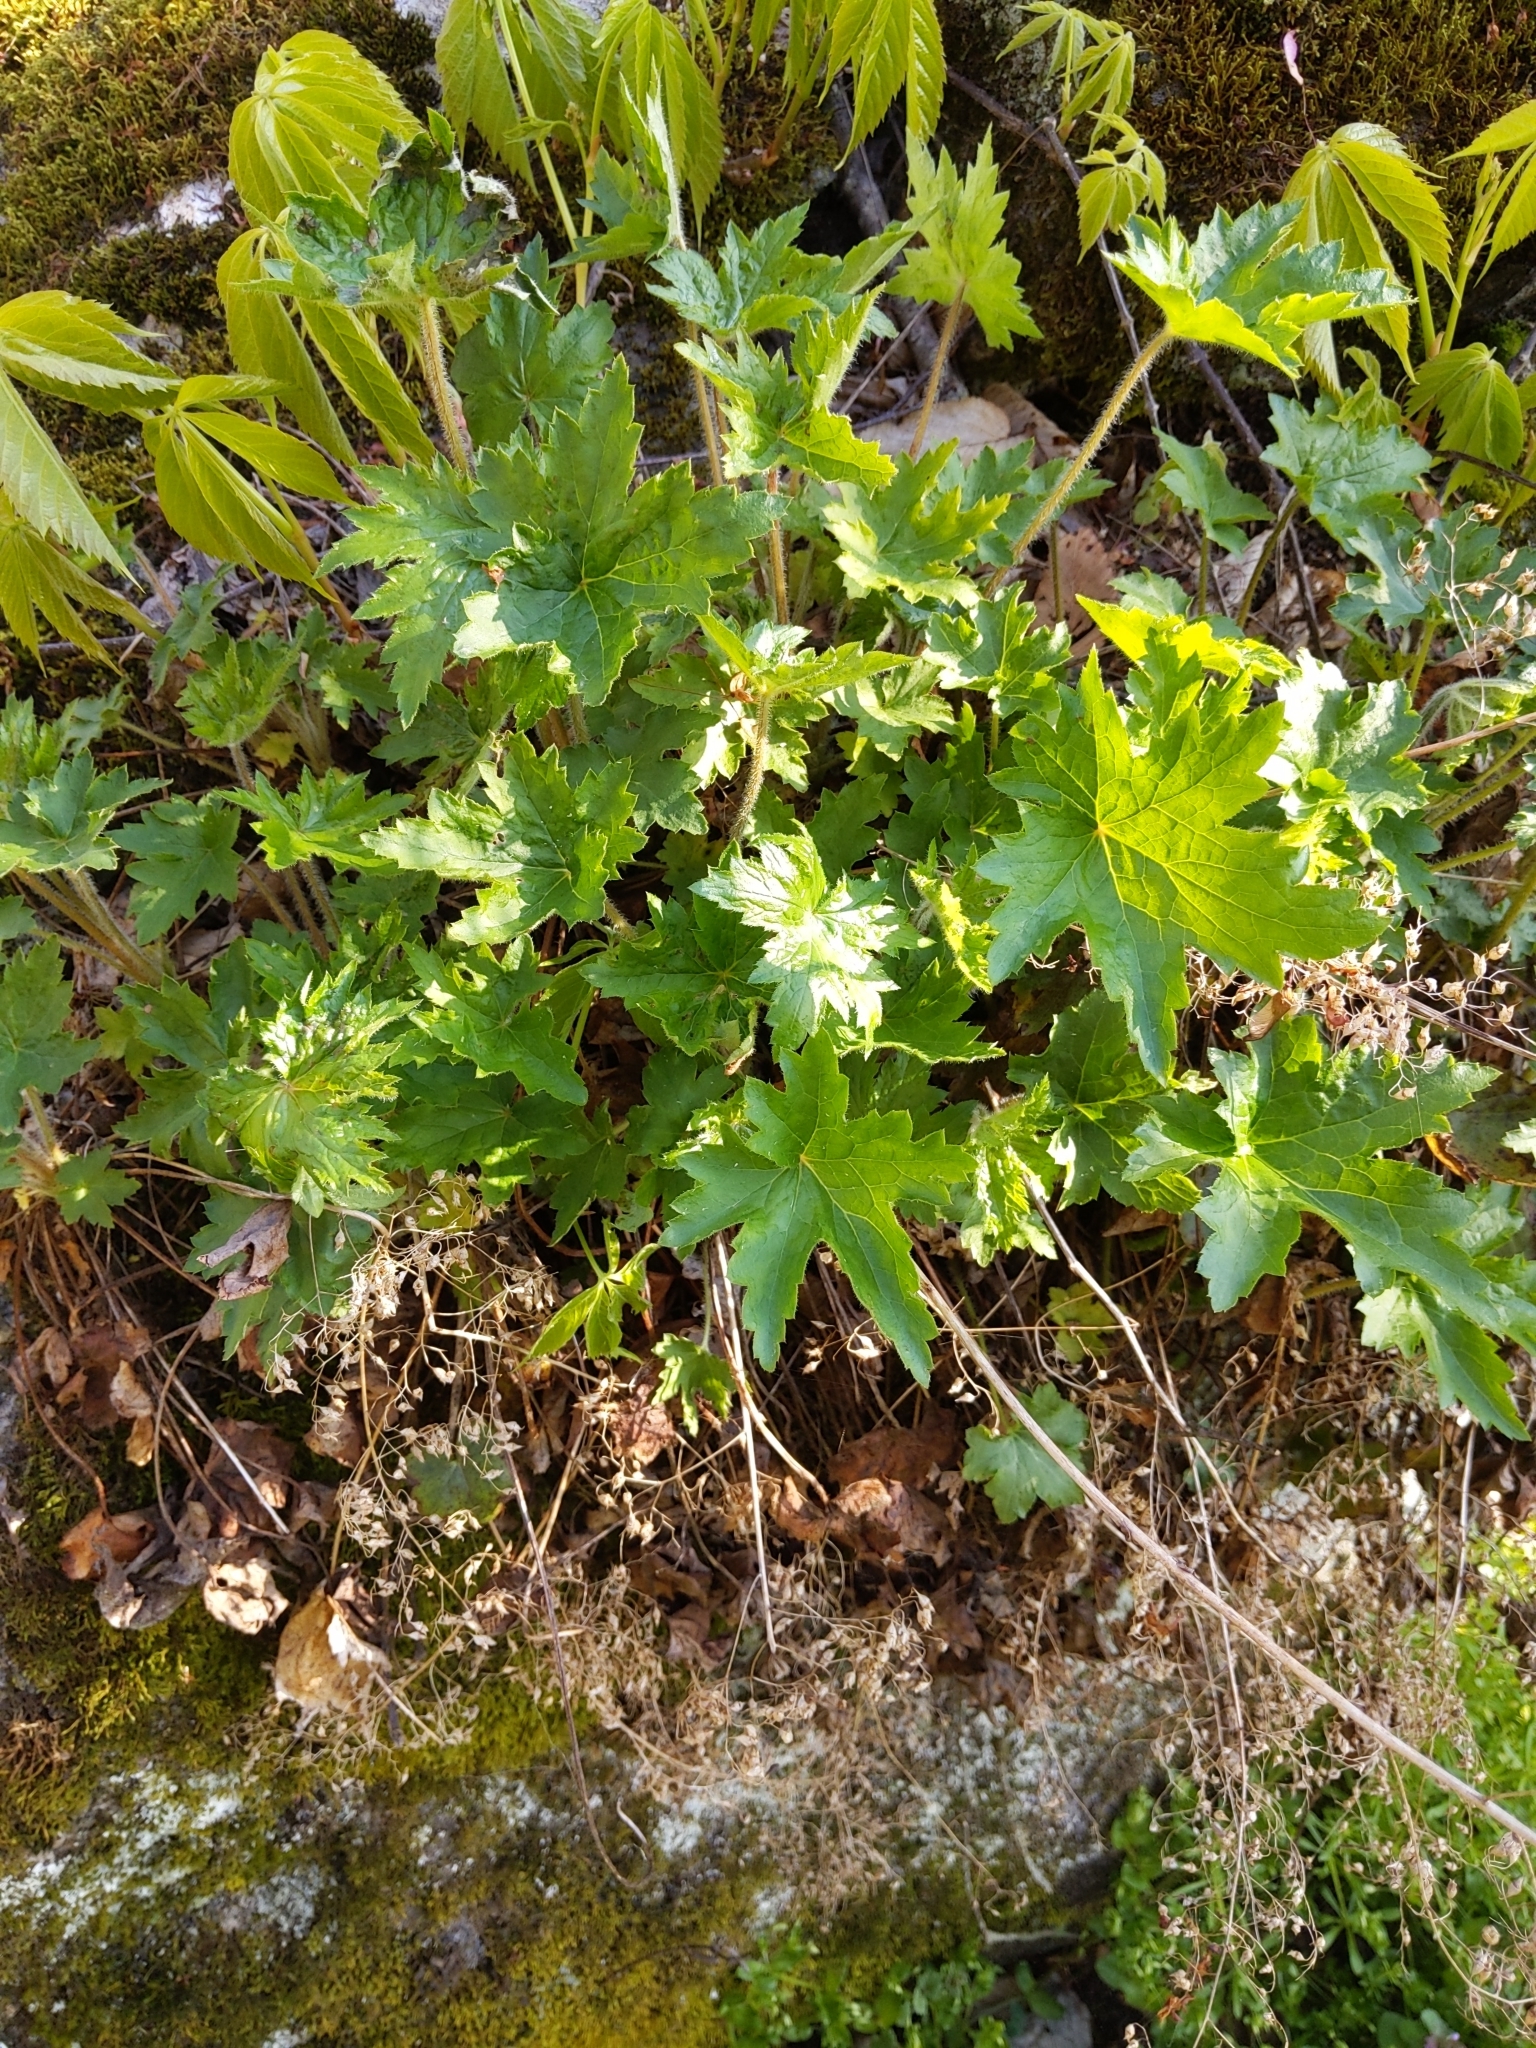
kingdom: Plantae
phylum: Tracheophyta
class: Magnoliopsida
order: Saxifragales
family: Saxifragaceae
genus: Heuchera
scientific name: Heuchera villosa
